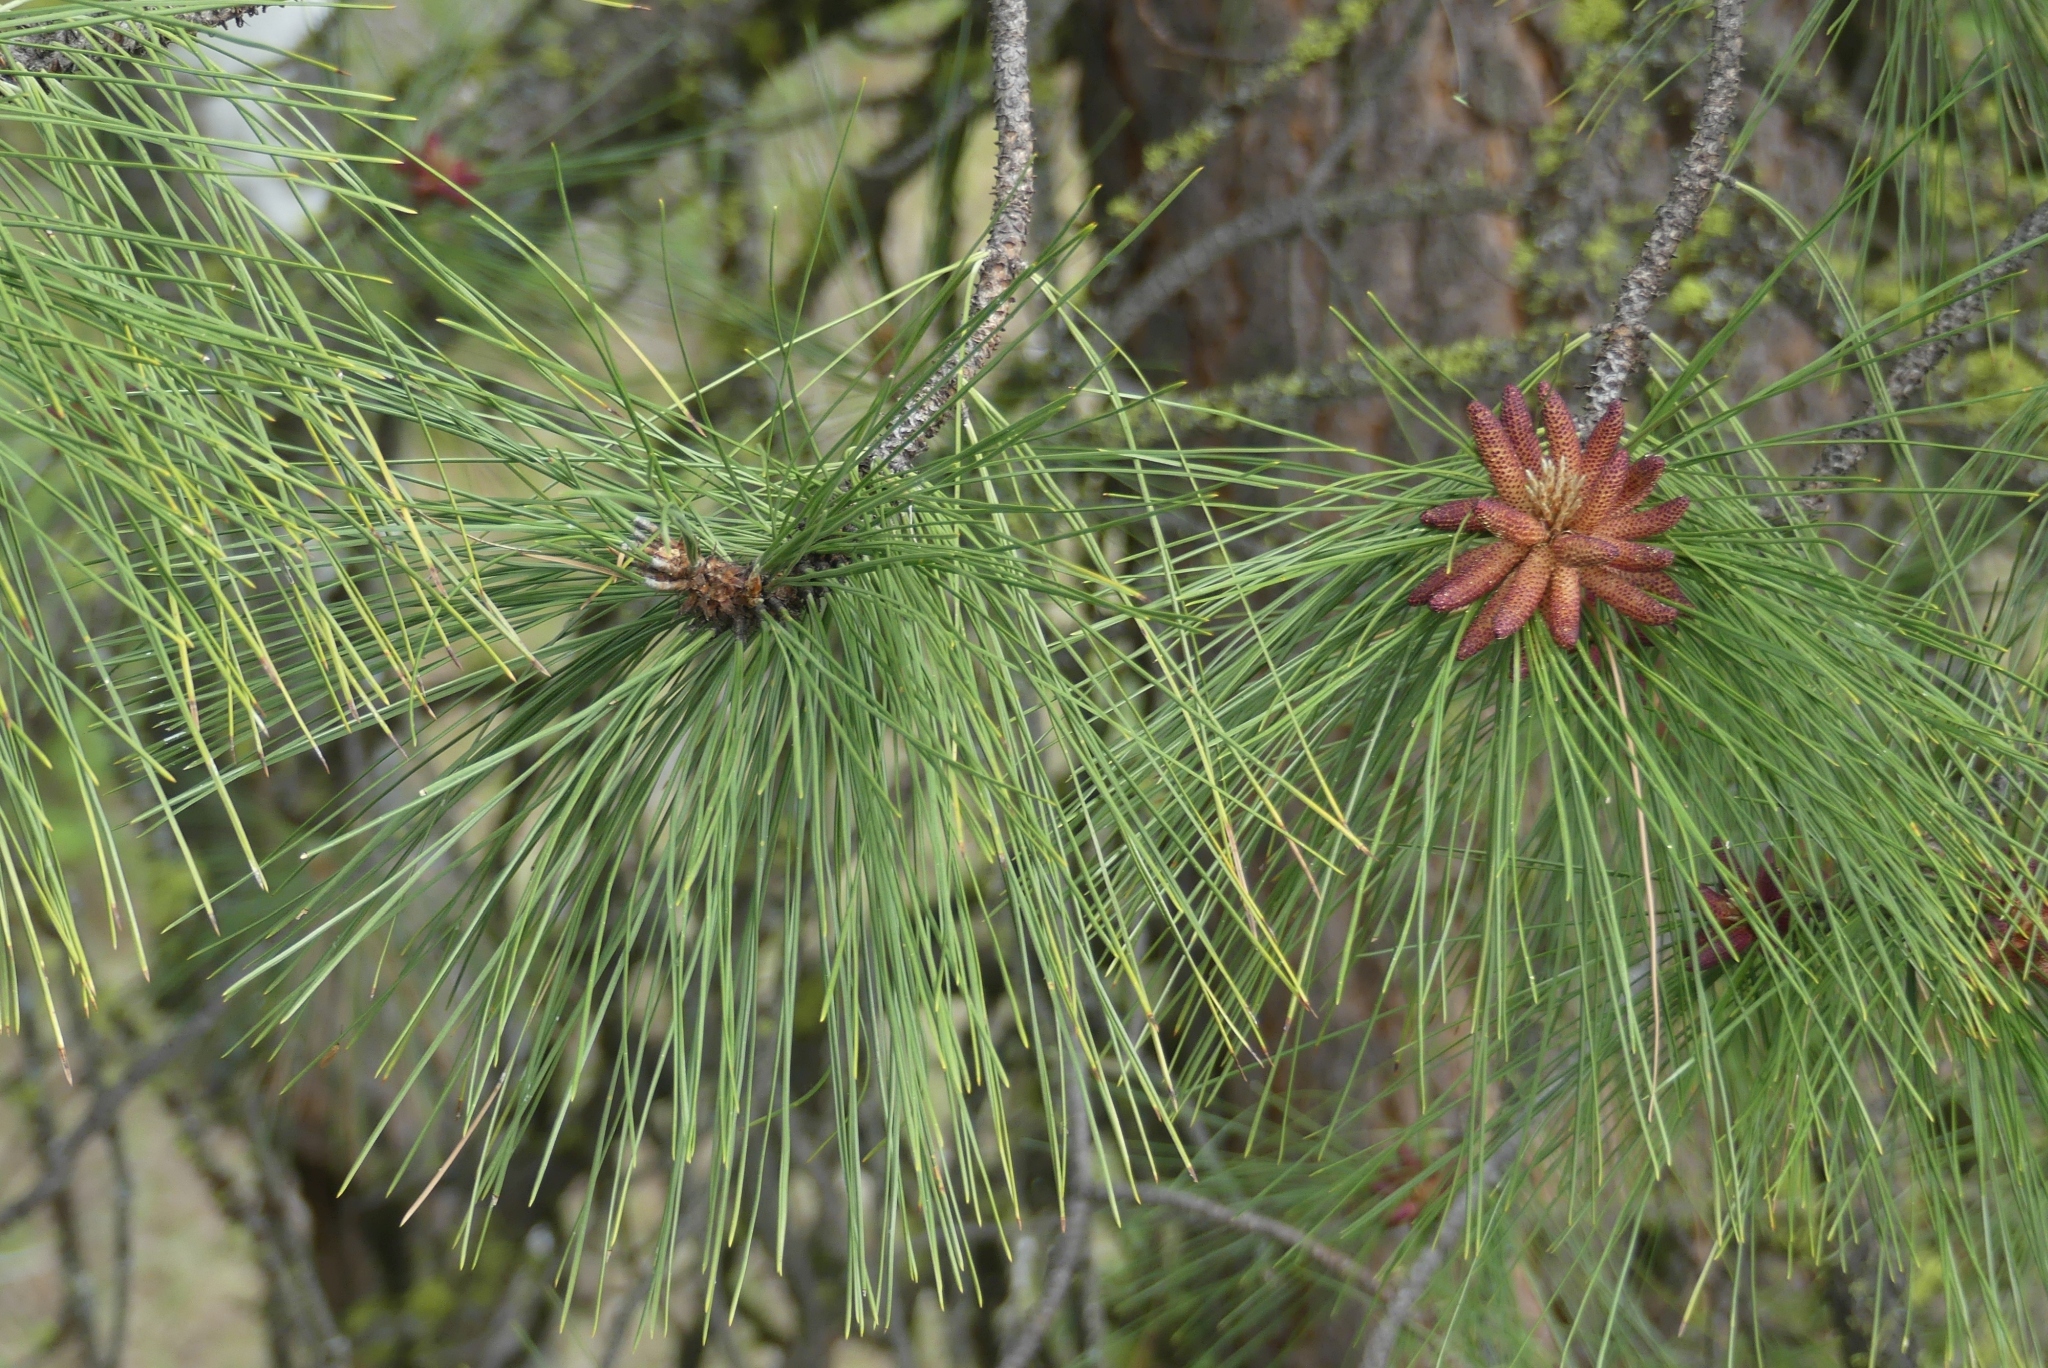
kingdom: Plantae
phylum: Tracheophyta
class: Pinopsida
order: Pinales
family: Pinaceae
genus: Pinus
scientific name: Pinus ponderosa
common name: Western yellow-pine
